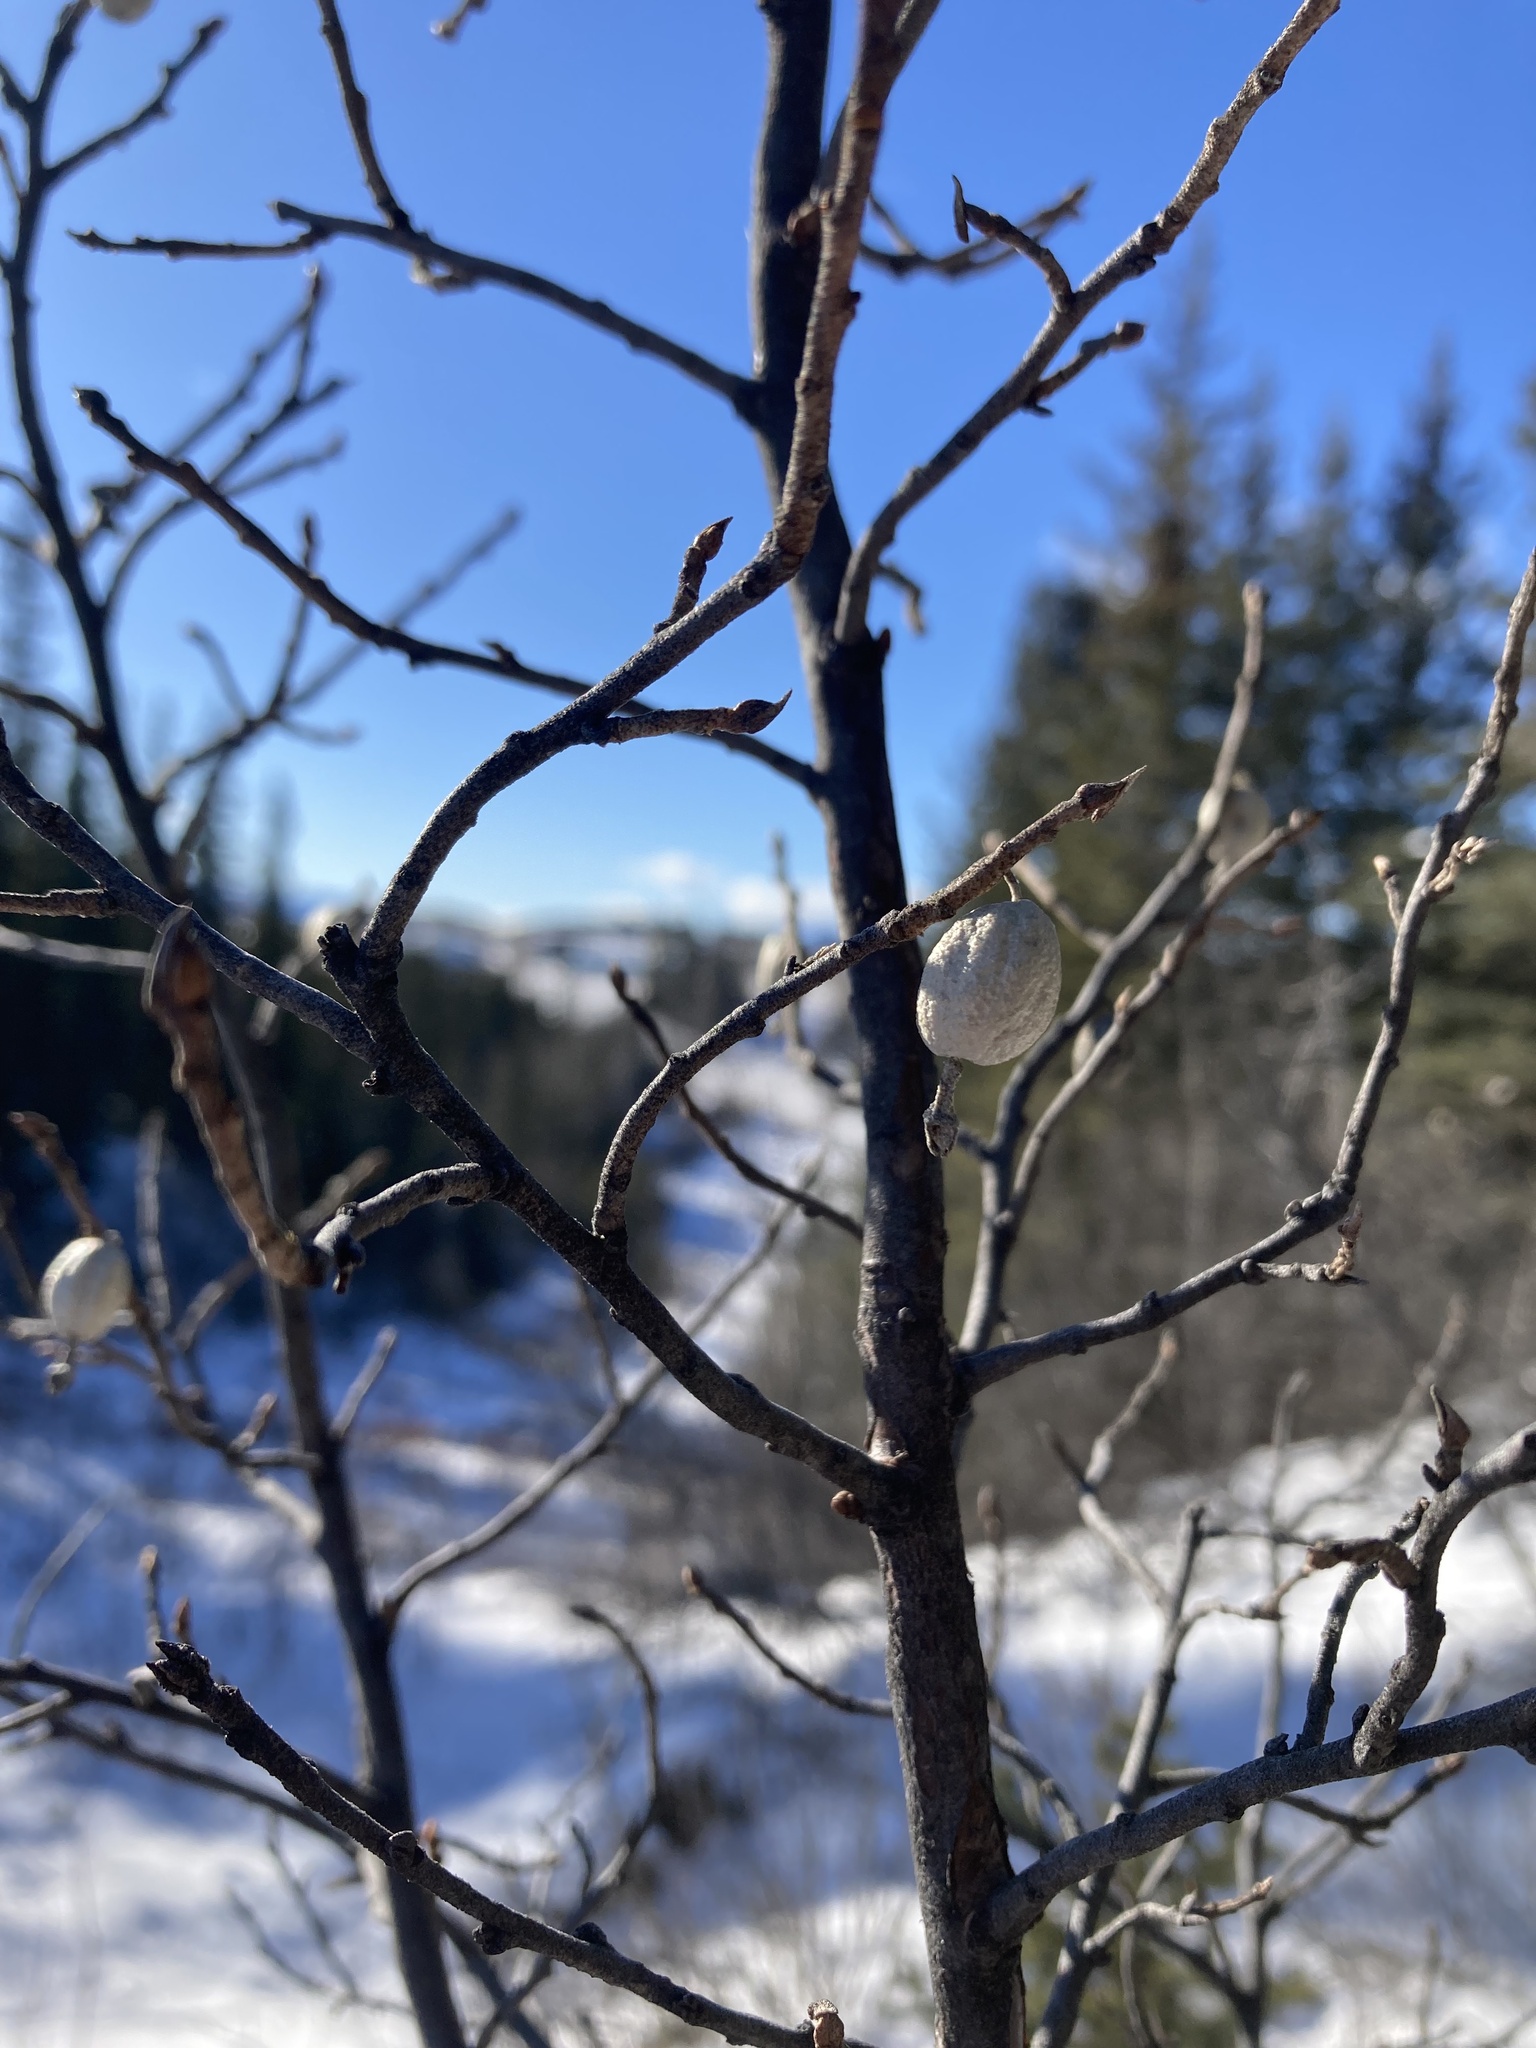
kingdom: Plantae
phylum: Tracheophyta
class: Magnoliopsida
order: Rosales
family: Elaeagnaceae
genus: Elaeagnus
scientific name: Elaeagnus commutata
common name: Silverberry
